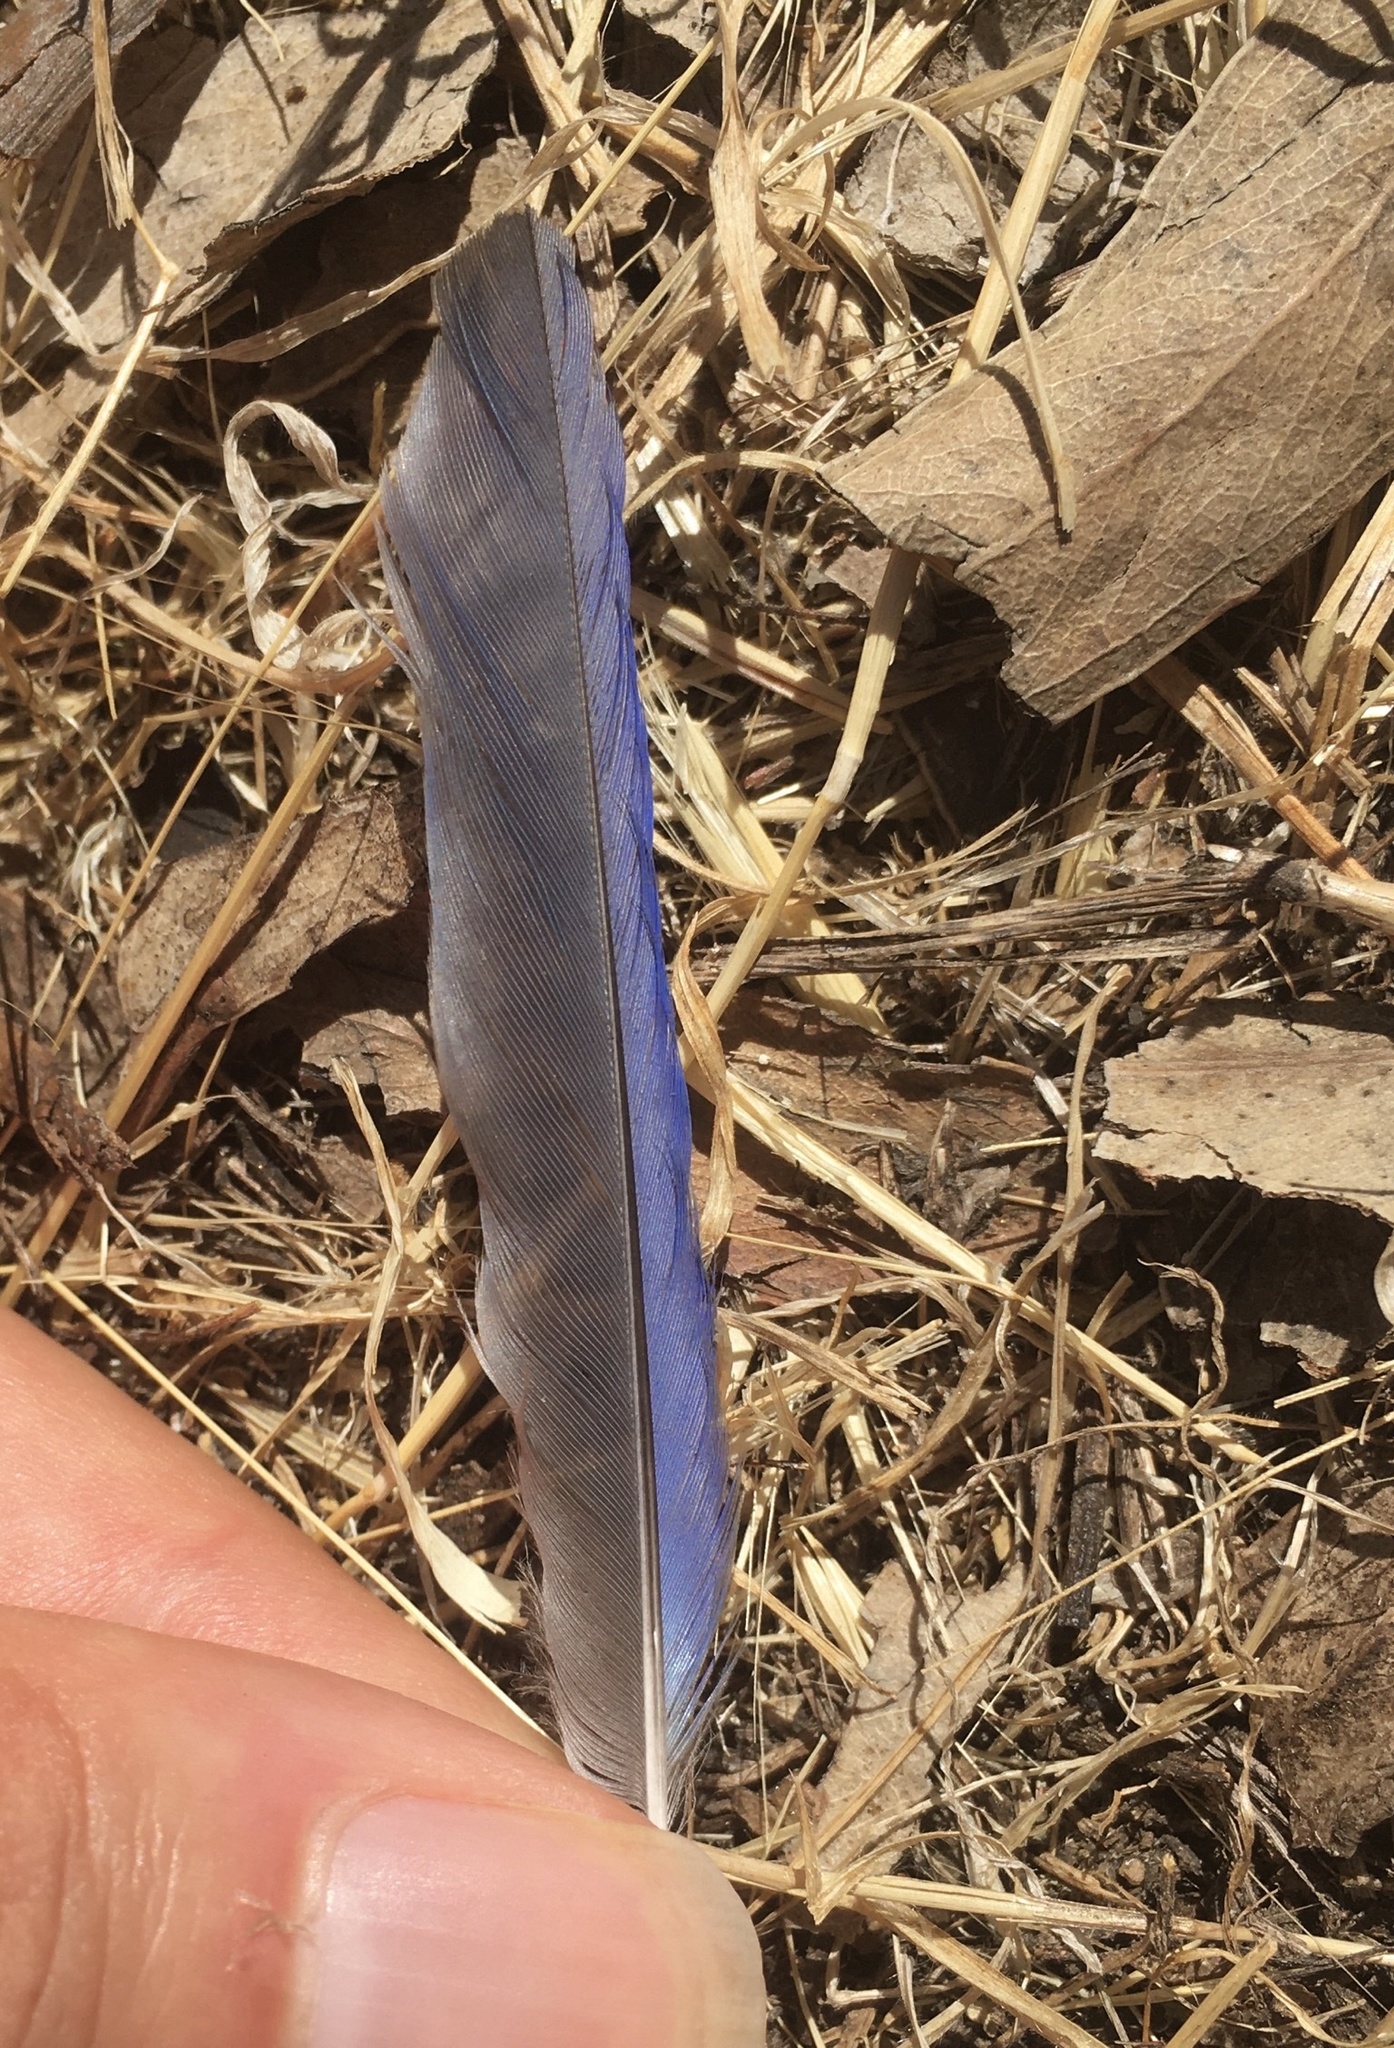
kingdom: Animalia
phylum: Chordata
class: Aves
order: Passeriformes
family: Turdidae
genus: Sialia
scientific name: Sialia mexicana
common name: Western bluebird
